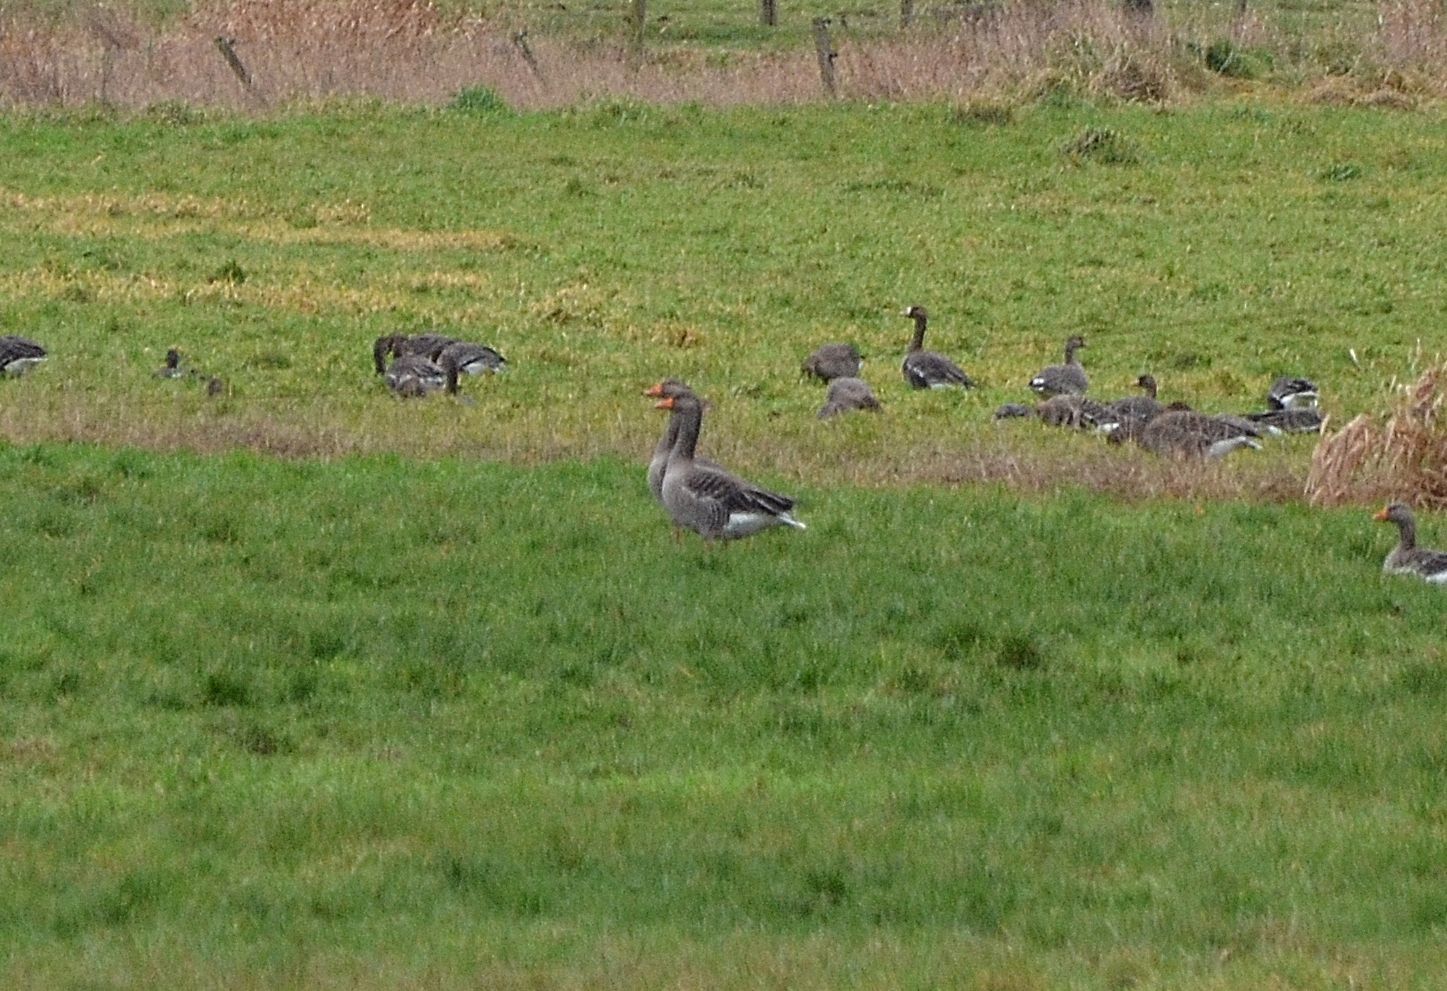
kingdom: Animalia
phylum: Chordata
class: Aves
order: Anseriformes
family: Anatidae
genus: Anser
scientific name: Anser anser
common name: Greylag goose
